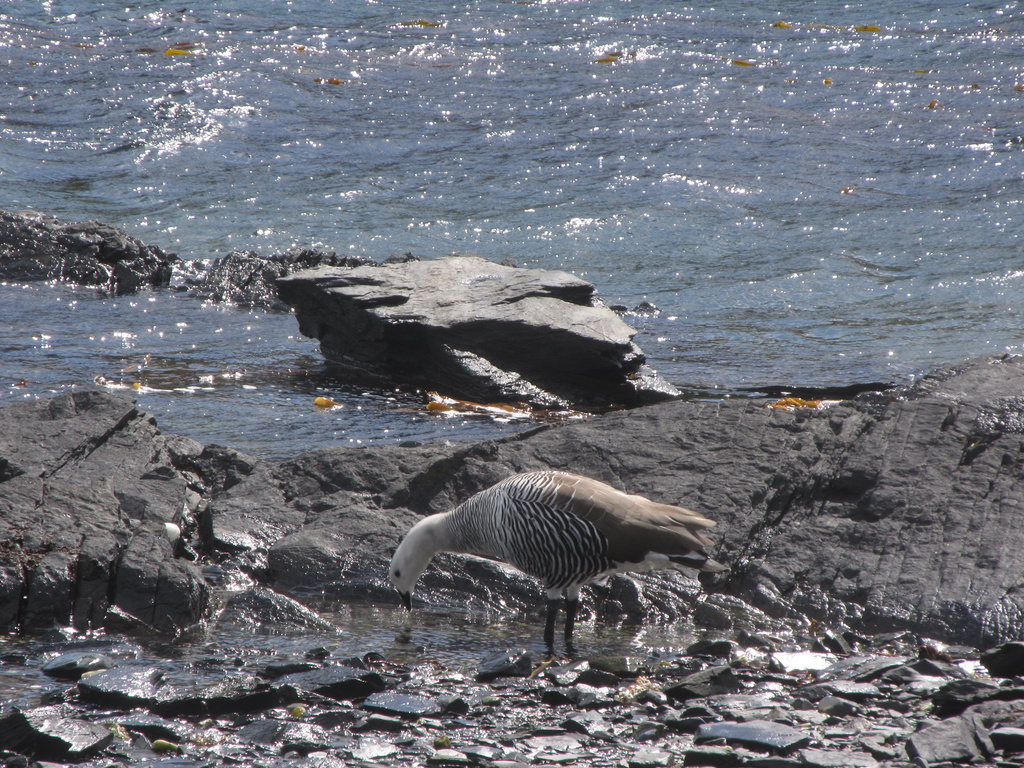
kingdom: Animalia
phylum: Chordata
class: Aves
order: Anseriformes
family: Anatidae
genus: Chloephaga
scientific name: Chloephaga picta
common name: Upland goose
